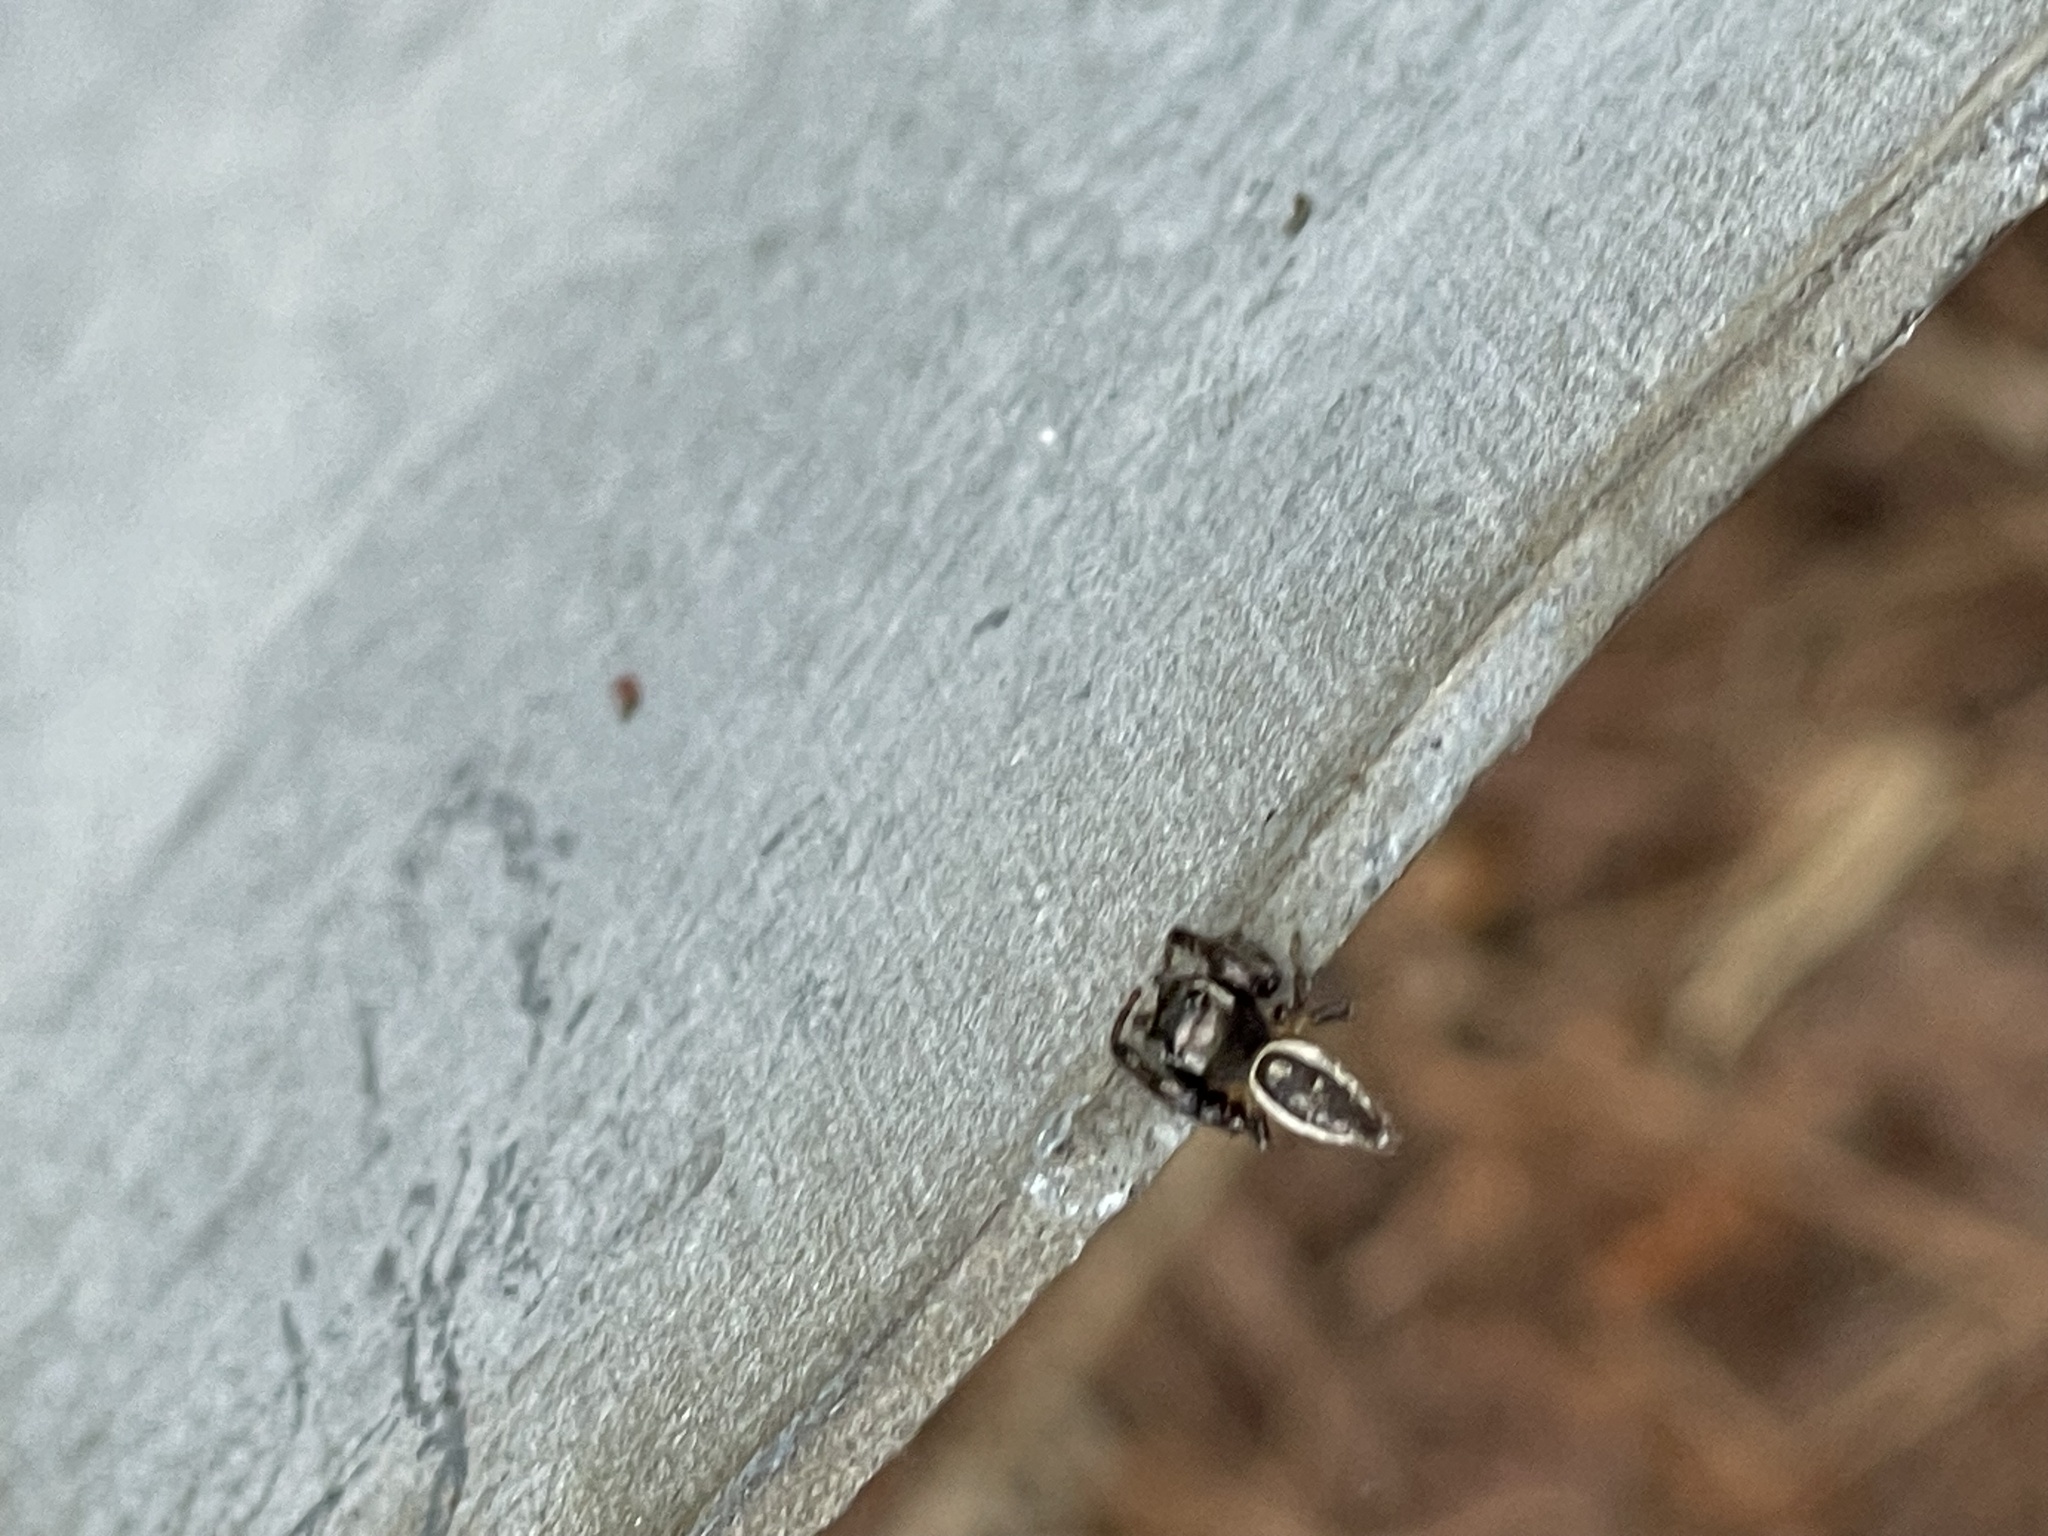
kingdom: Animalia
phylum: Arthropoda
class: Arachnida
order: Araneae
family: Salticidae
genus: Eris
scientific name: Eris militaris
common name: Bronze jumper
